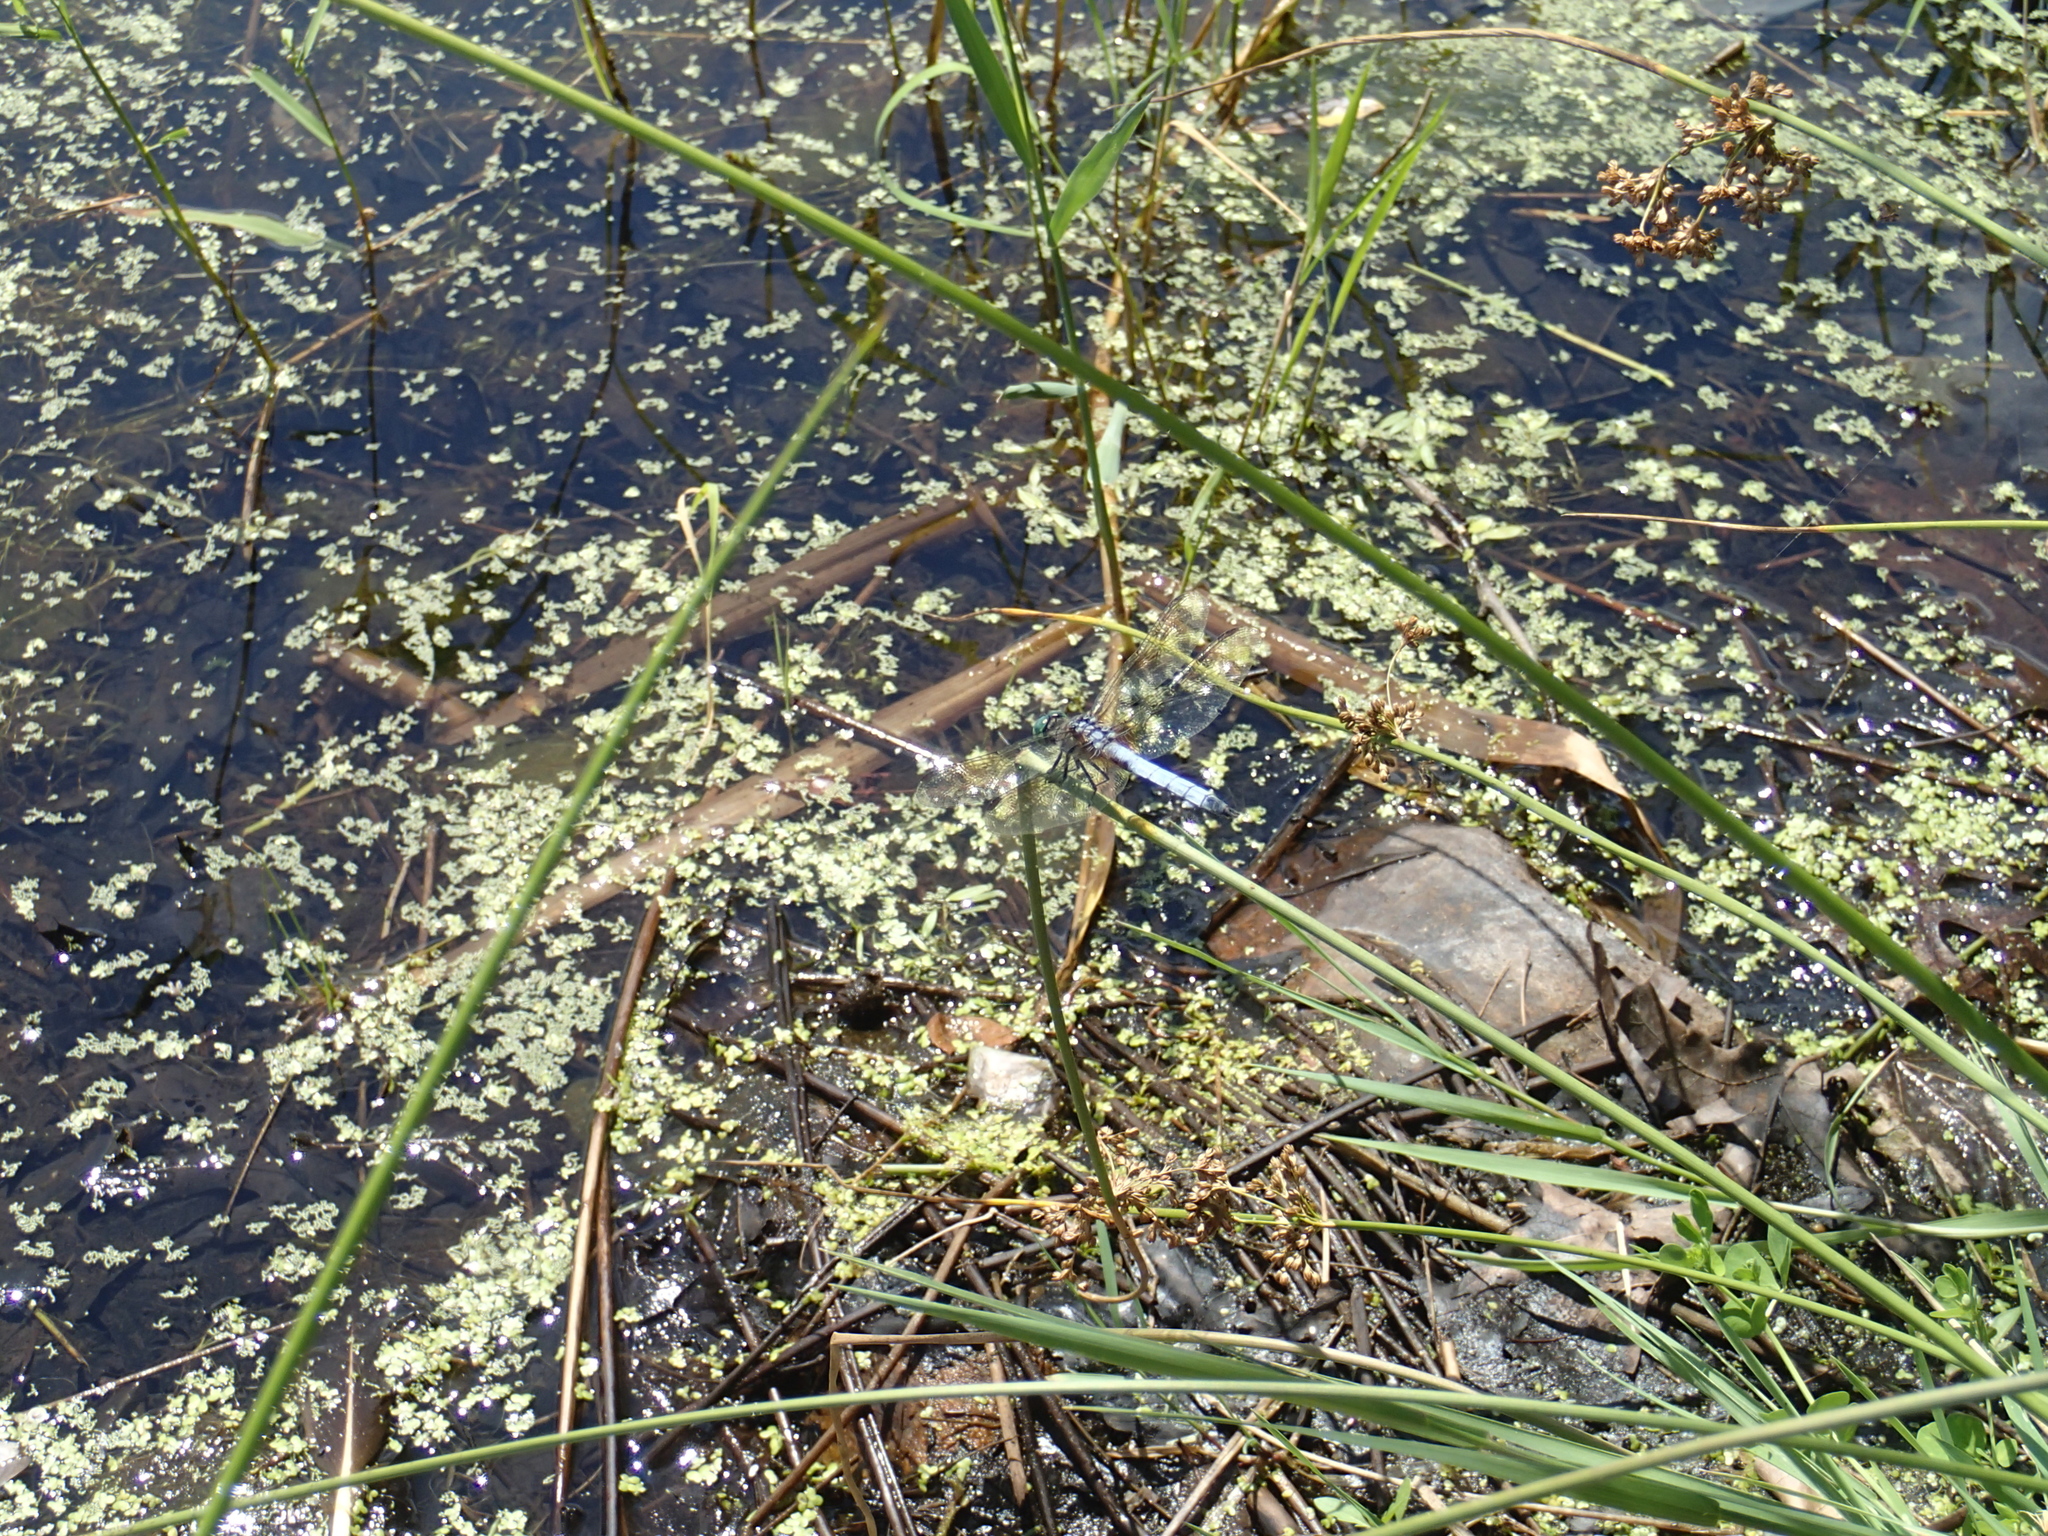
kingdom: Animalia
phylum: Arthropoda
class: Insecta
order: Odonata
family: Libellulidae
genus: Pachydiplax
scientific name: Pachydiplax longipennis
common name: Blue dasher
